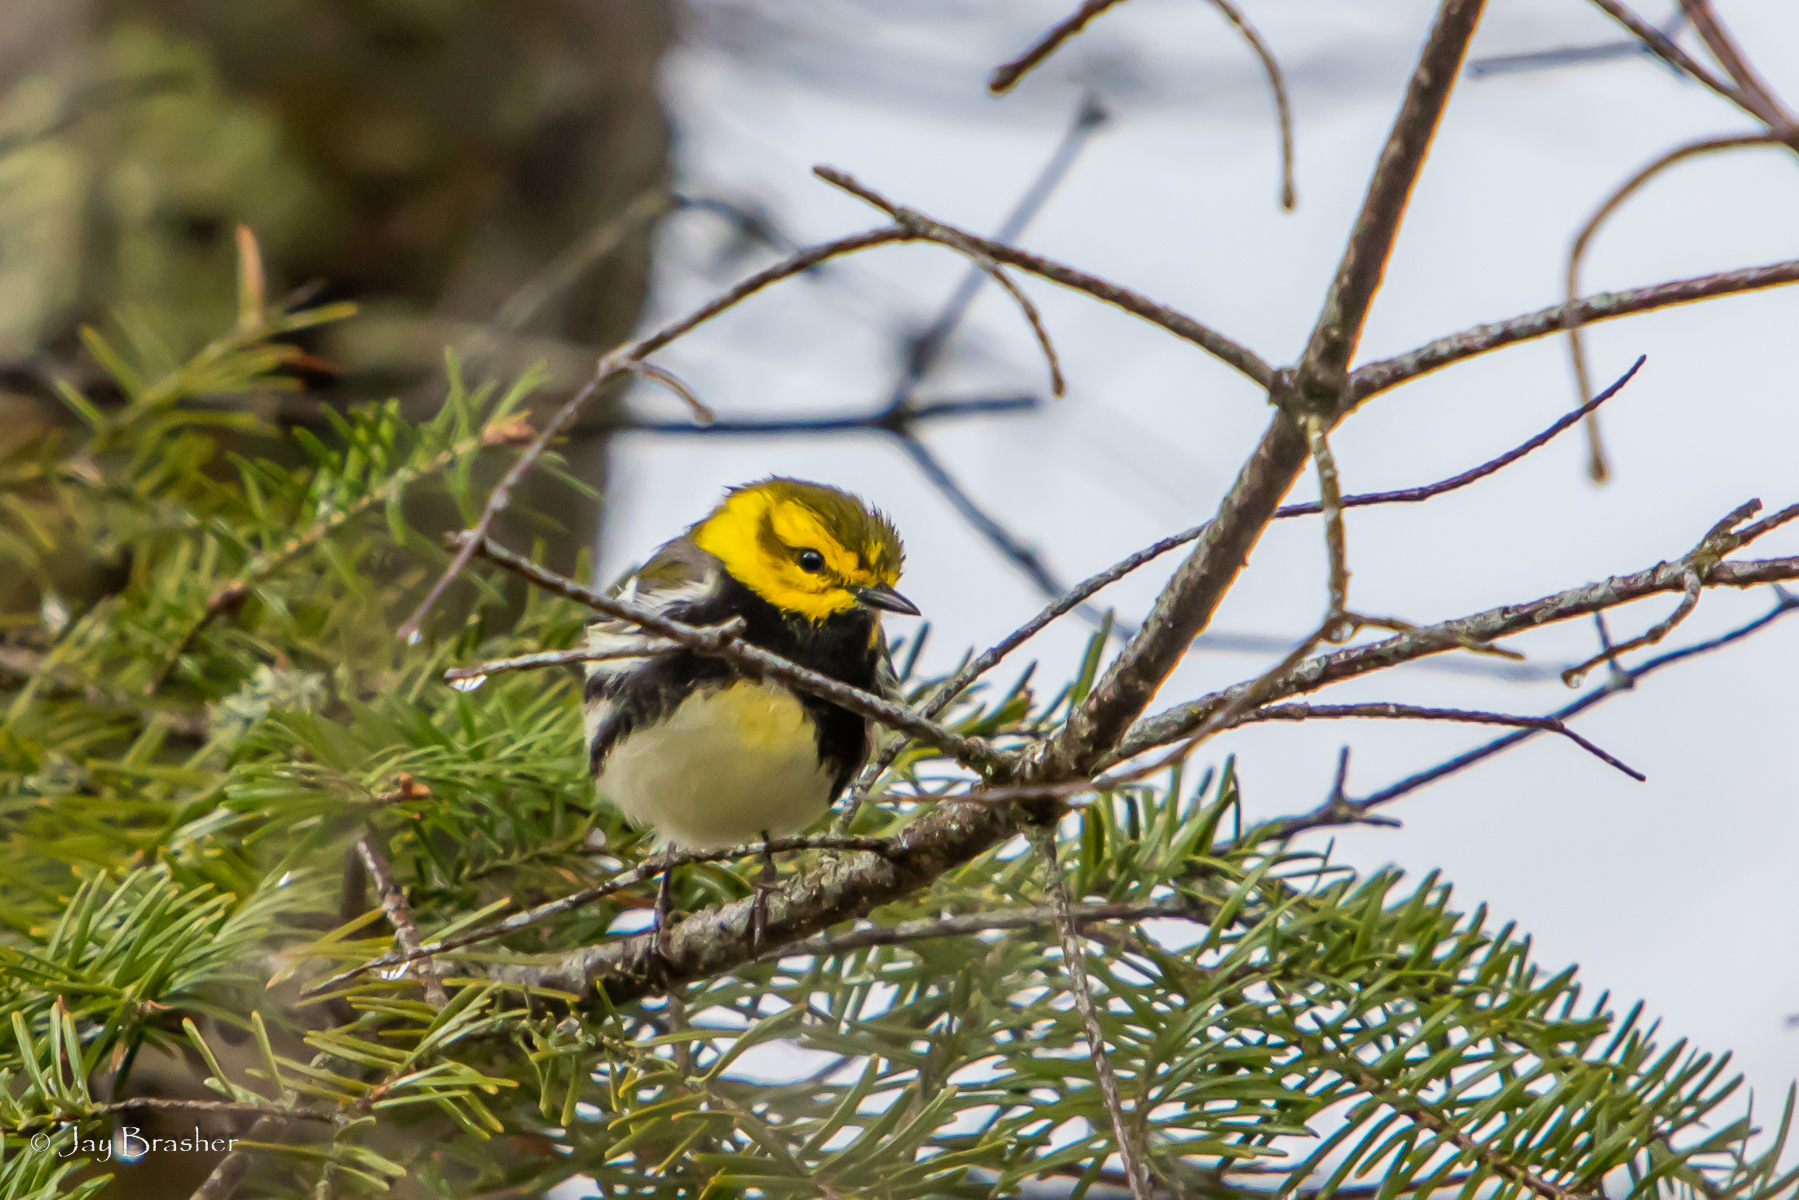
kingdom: Animalia
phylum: Chordata
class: Aves
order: Passeriformes
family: Parulidae
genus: Setophaga
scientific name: Setophaga virens
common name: Black-throated green warbler
